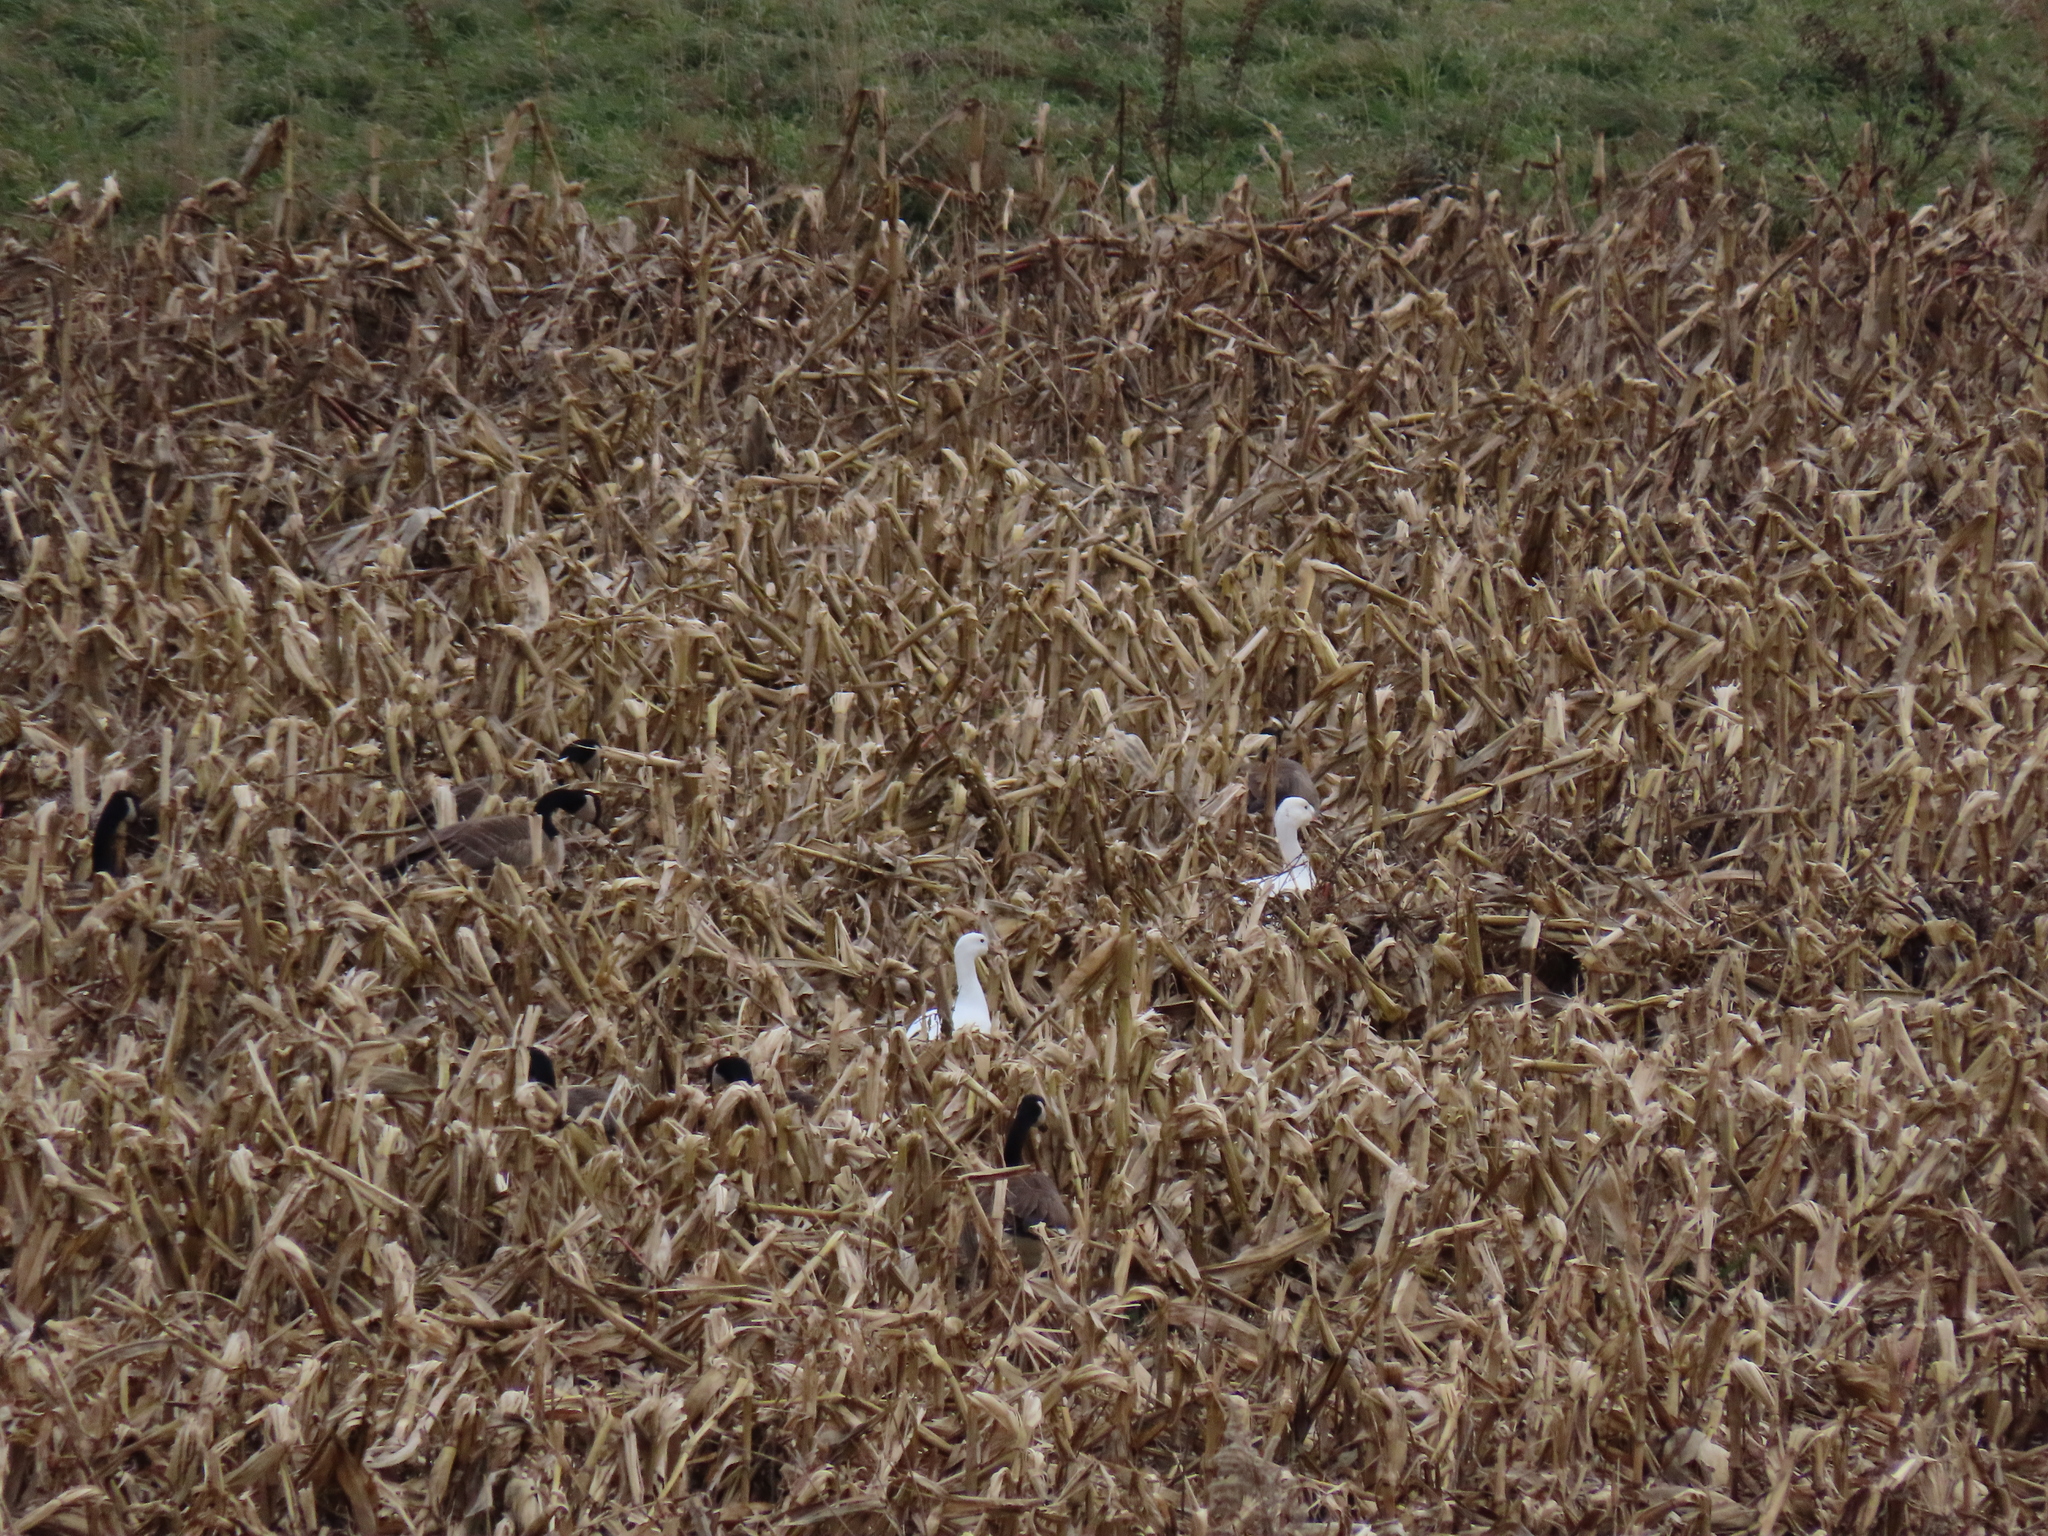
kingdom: Animalia
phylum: Chordata
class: Aves
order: Anseriformes
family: Anatidae
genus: Anser
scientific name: Anser caerulescens
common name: Snow goose
